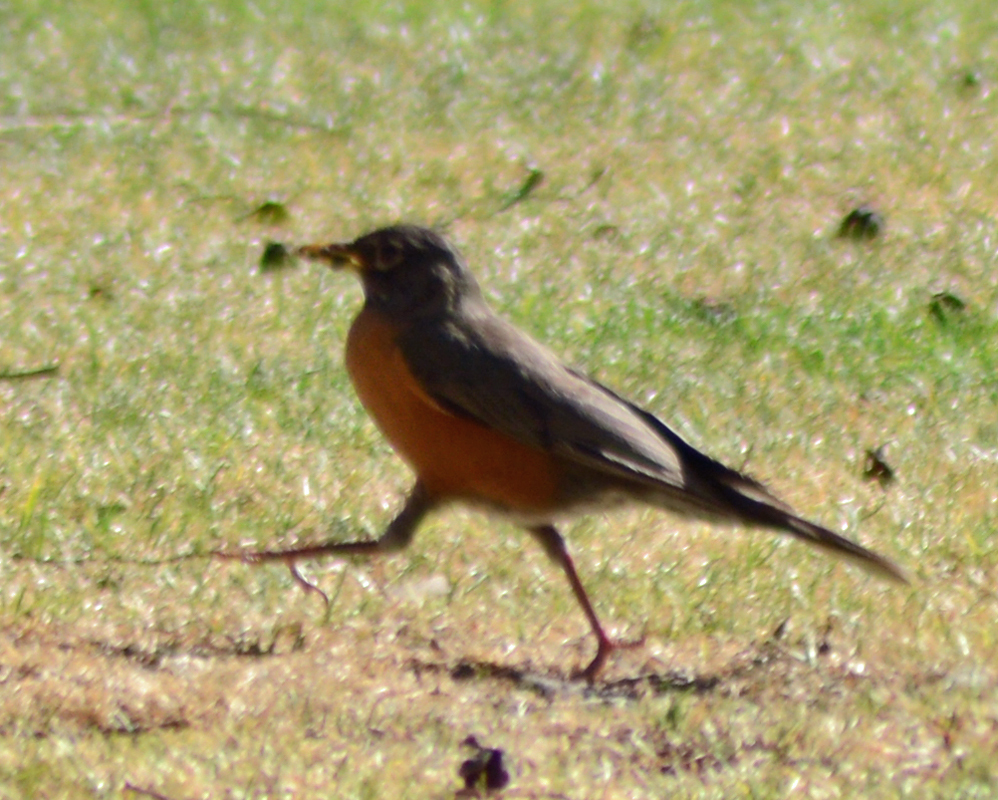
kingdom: Animalia
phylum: Chordata
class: Aves
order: Passeriformes
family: Turdidae
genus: Turdus
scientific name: Turdus migratorius
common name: American robin
